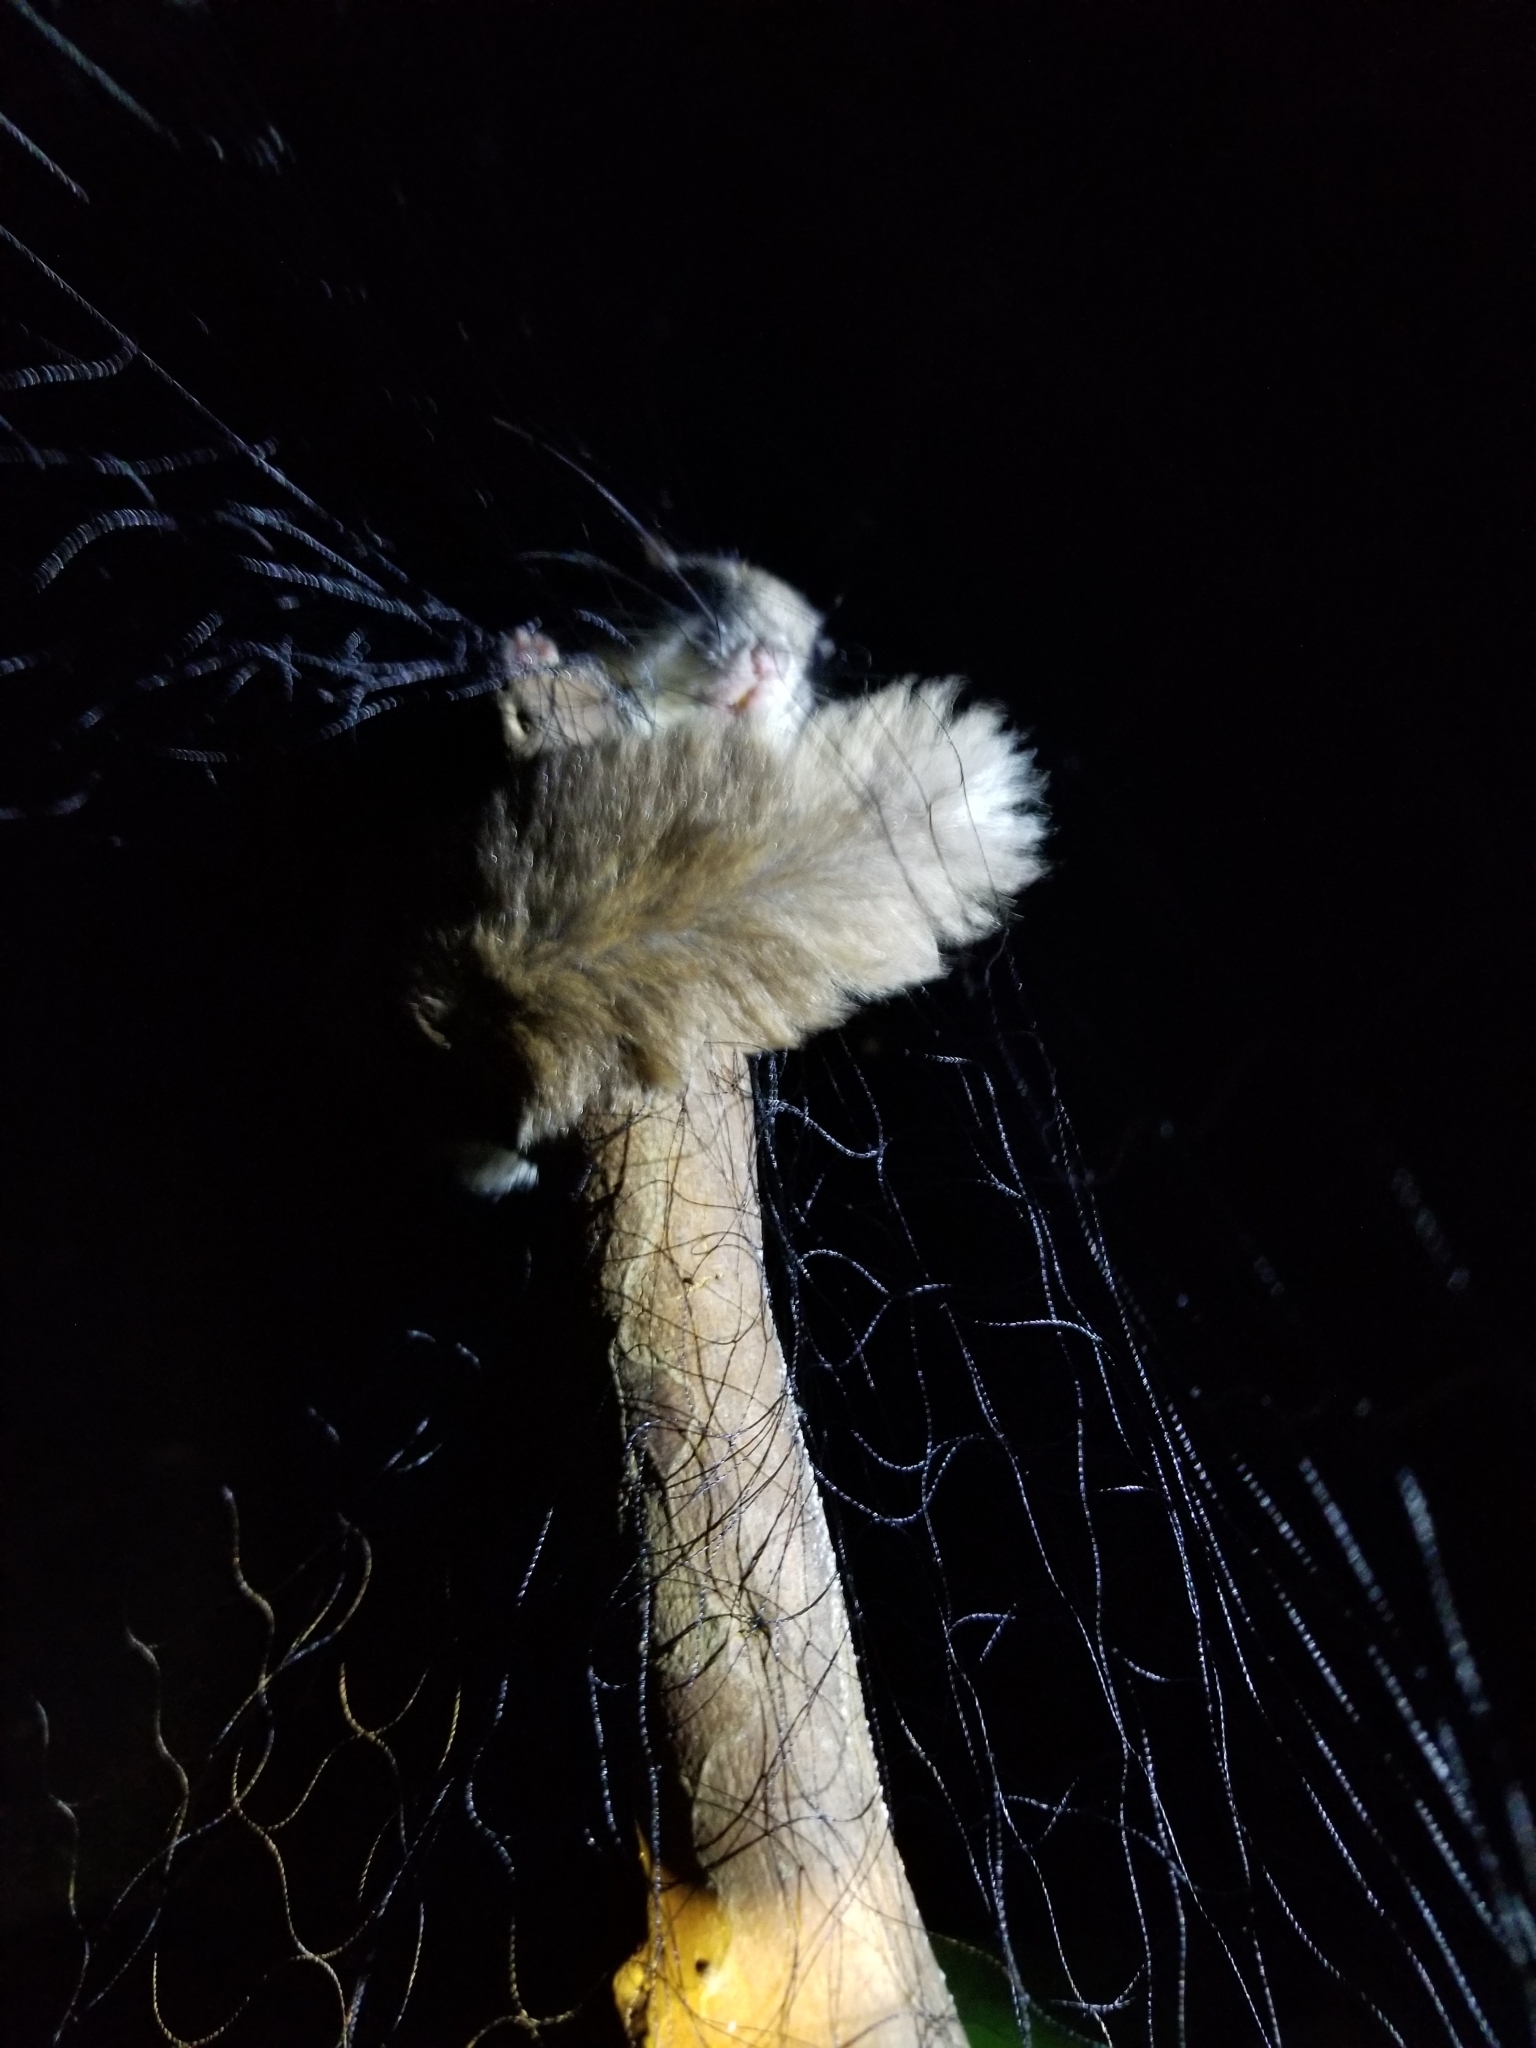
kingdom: Animalia
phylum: Chordata
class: Mammalia
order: Rodentia
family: Sciuridae
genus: Glaucomys
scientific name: Glaucomys volans
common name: Southern flying squirrel
